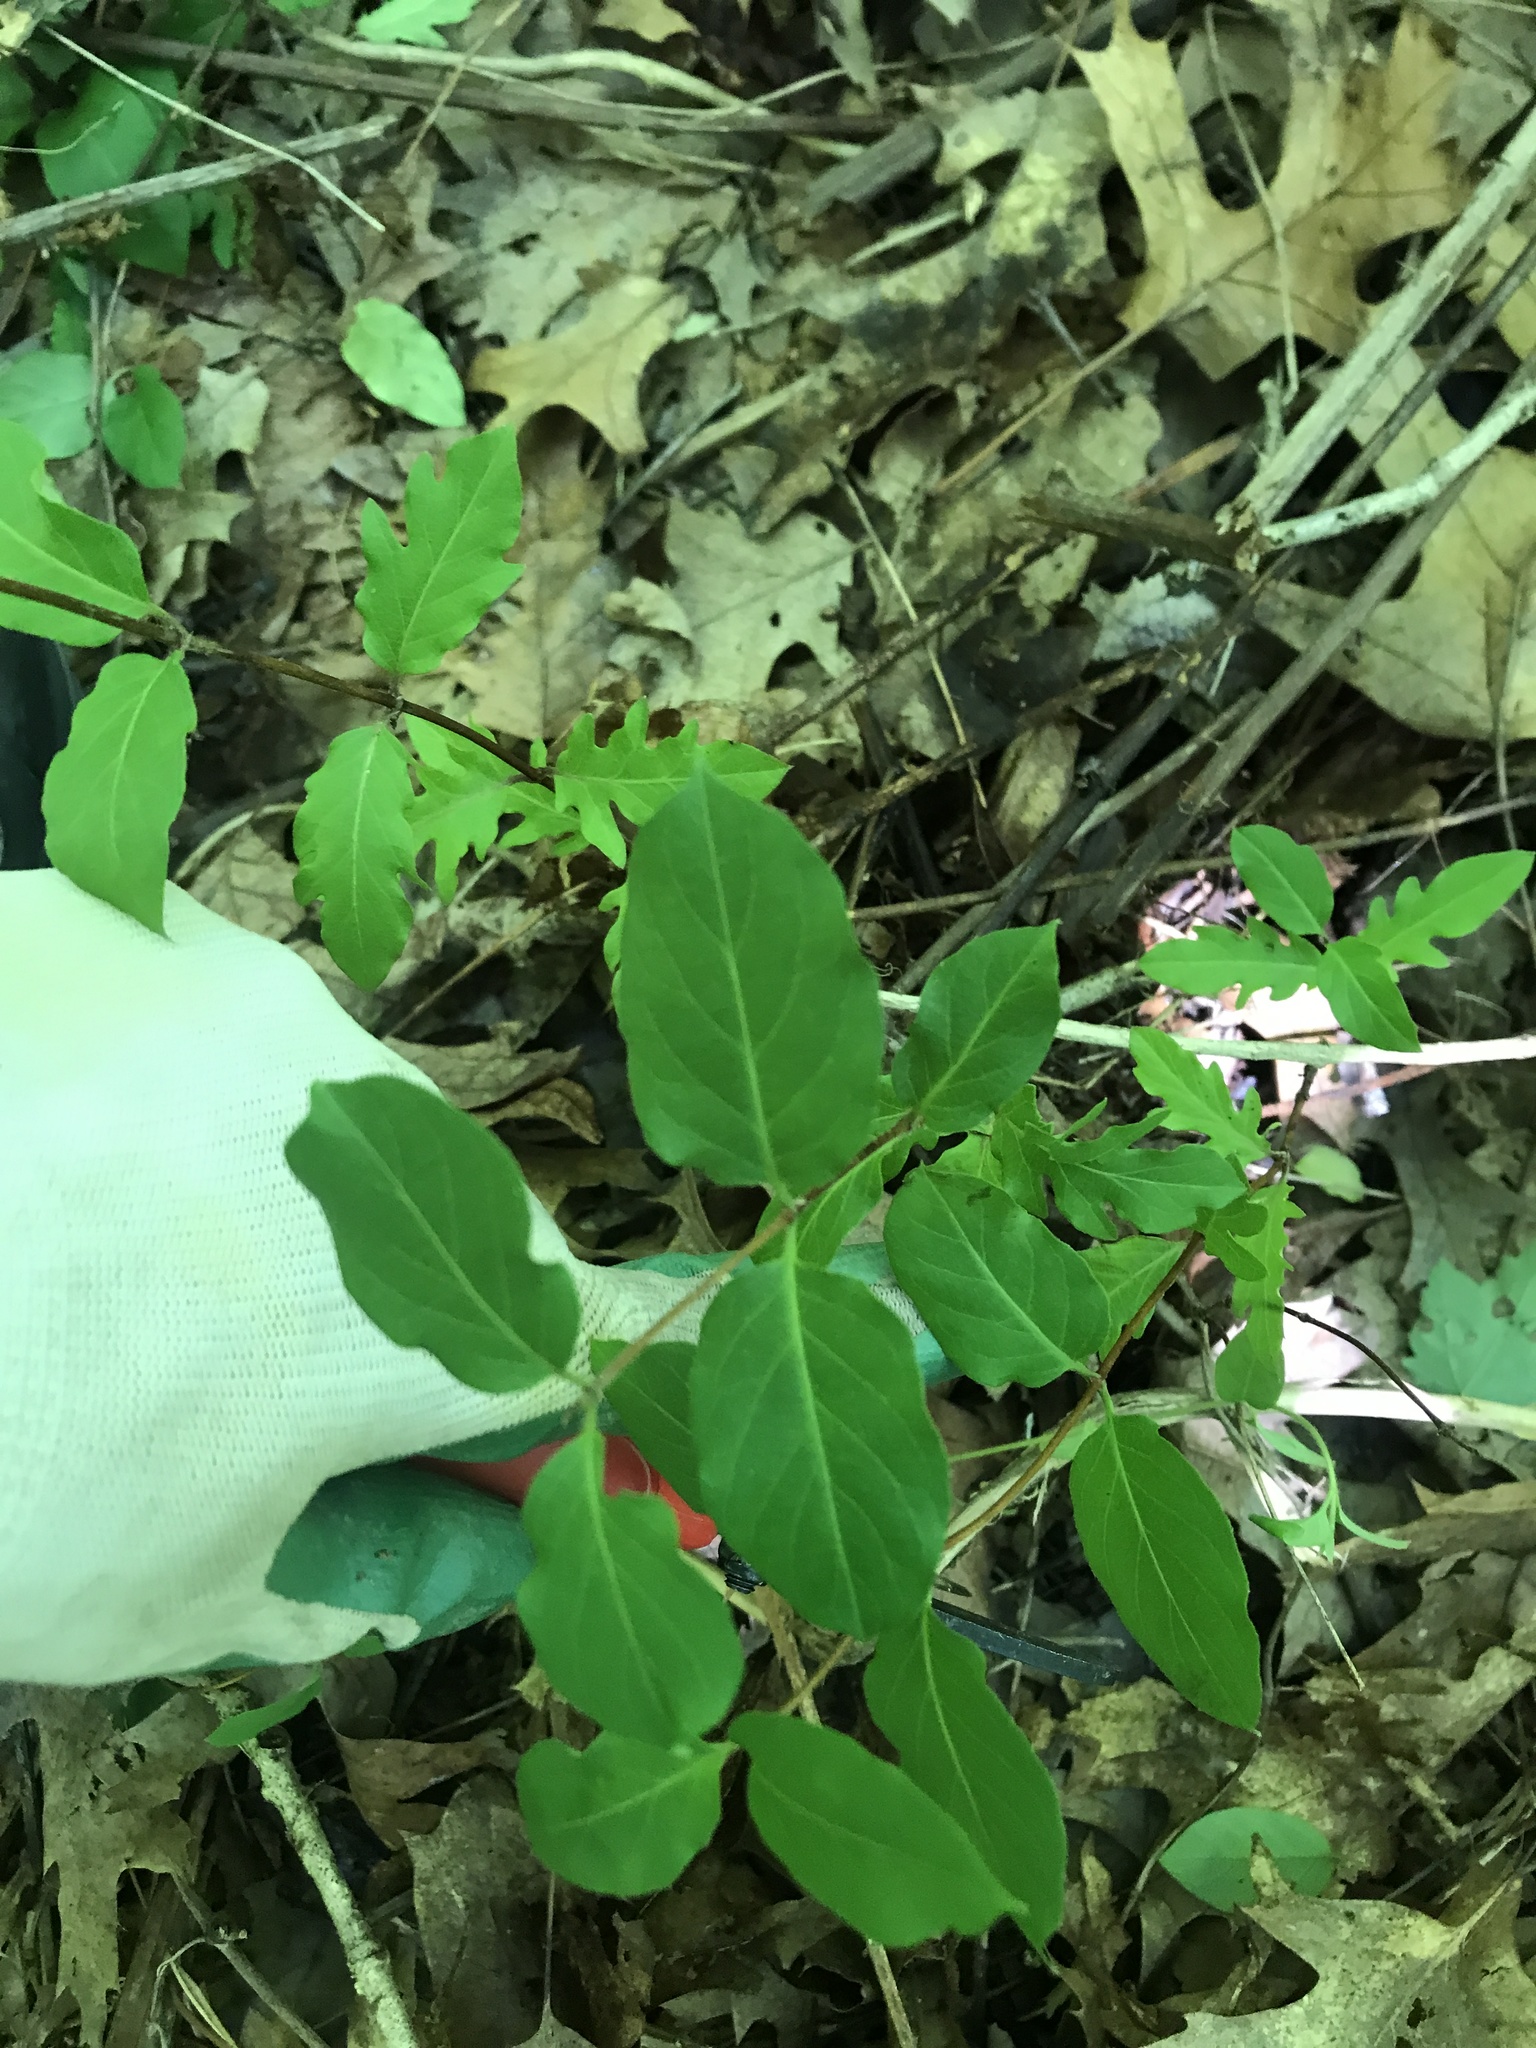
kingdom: Plantae
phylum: Tracheophyta
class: Magnoliopsida
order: Dipsacales
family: Caprifoliaceae
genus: Lonicera
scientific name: Lonicera japonica
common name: Japanese honeysuckle
